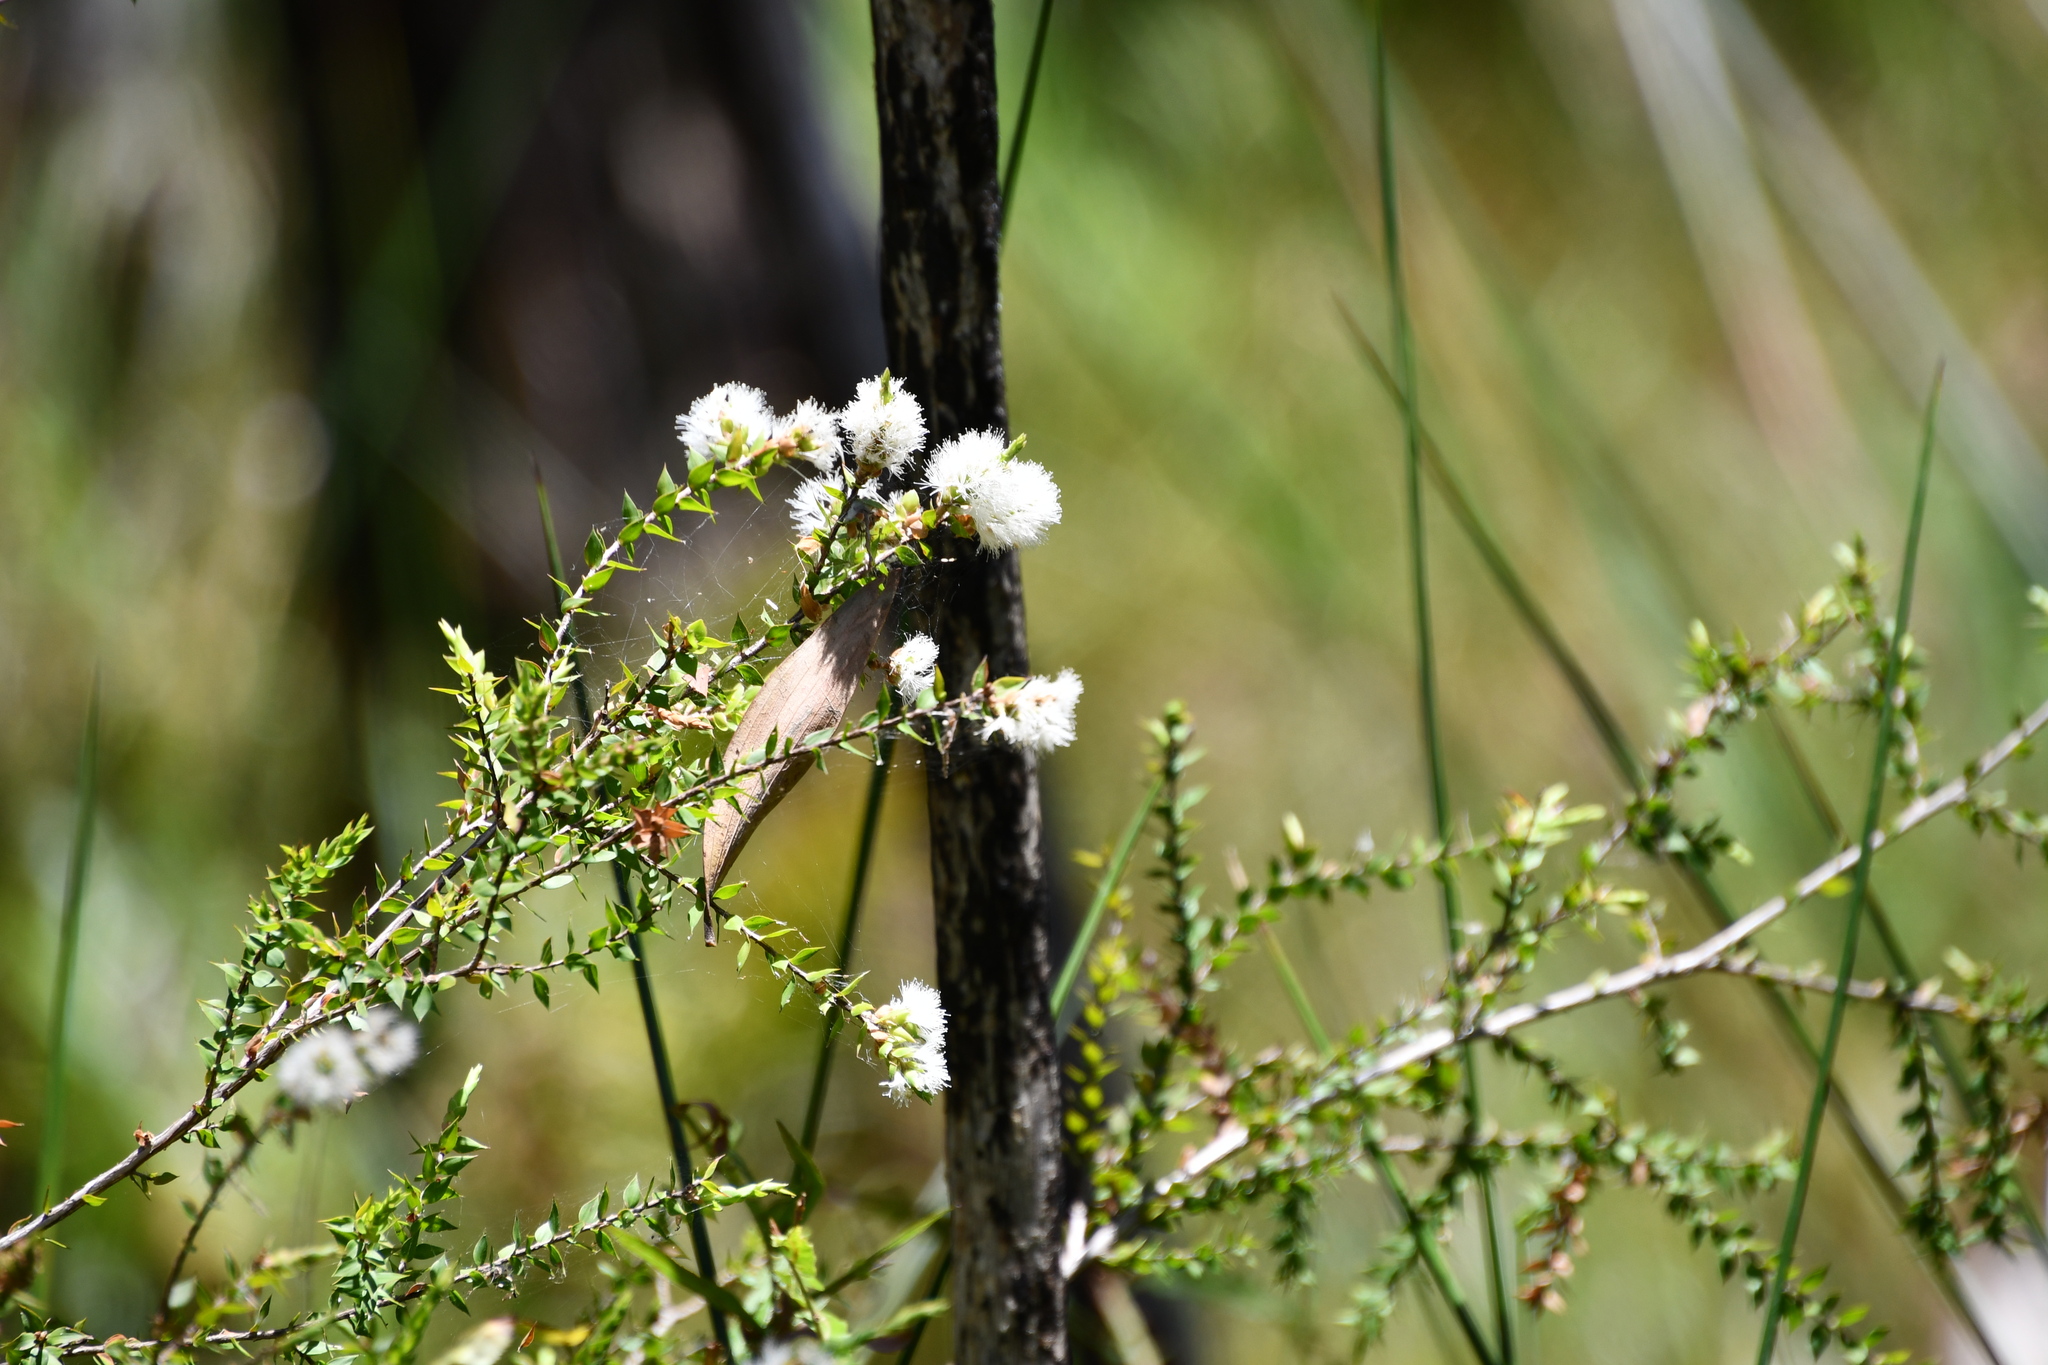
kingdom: Plantae
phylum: Tracheophyta
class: Magnoliopsida
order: Myrtales
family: Myrtaceae
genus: Melaleuca
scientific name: Melaleuca styphelioides
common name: Prickly paperbark
